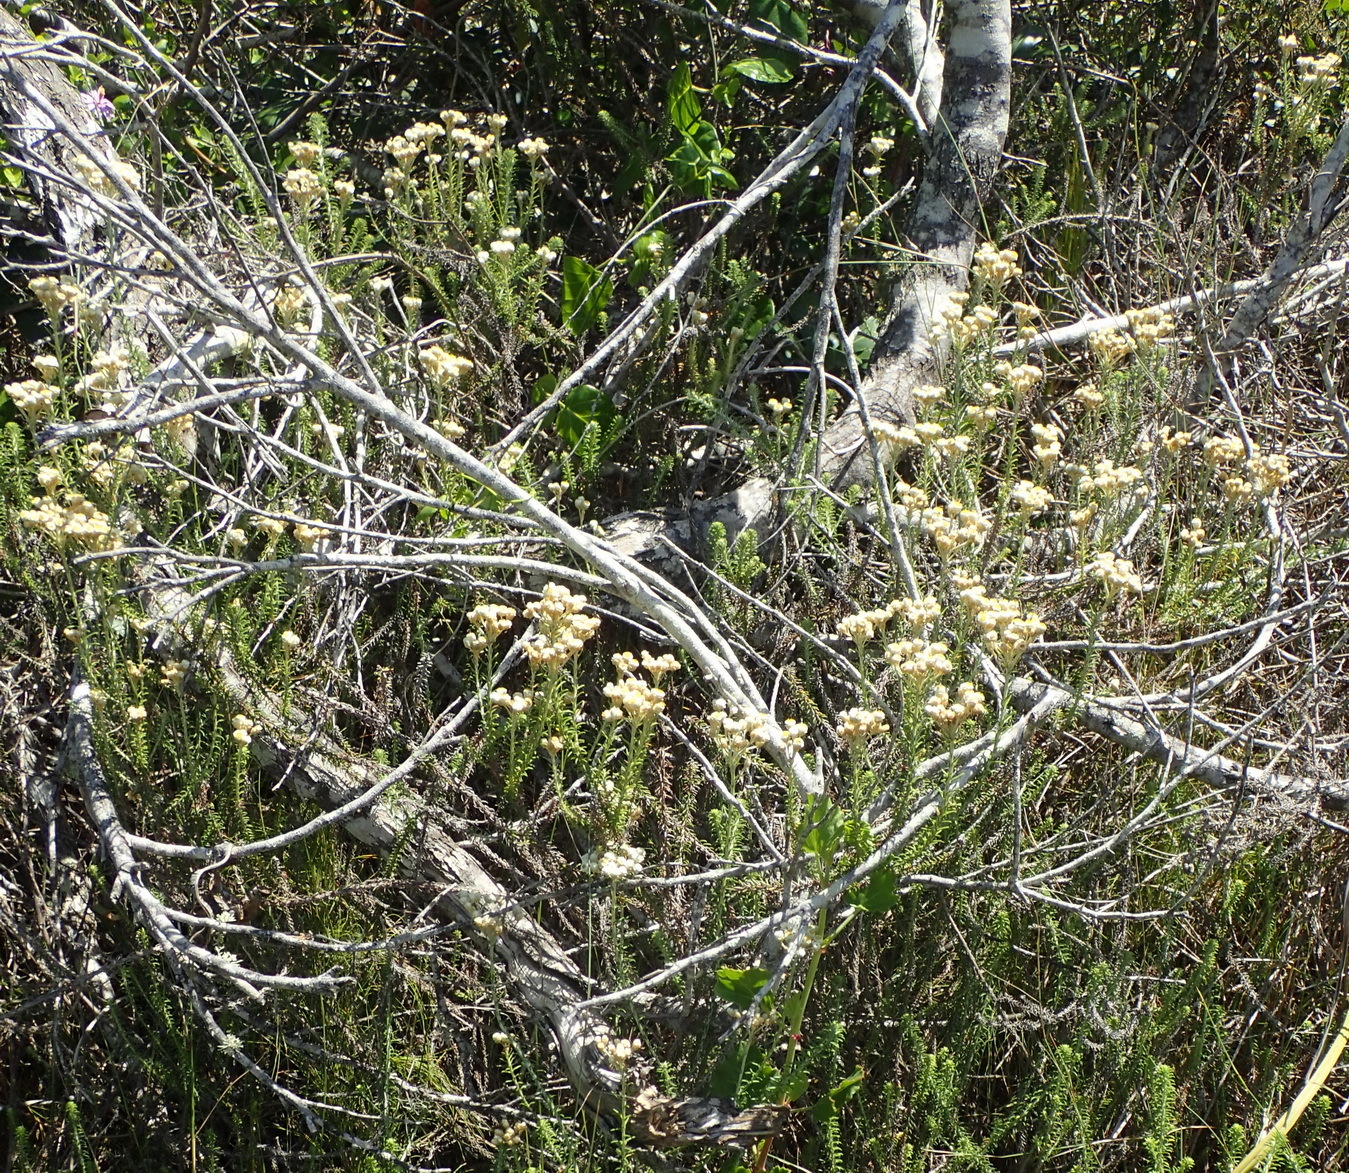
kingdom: Plantae
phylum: Tracheophyta
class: Magnoliopsida
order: Asterales
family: Asteraceae
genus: Helichrysum
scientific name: Helichrysum teretifolium
